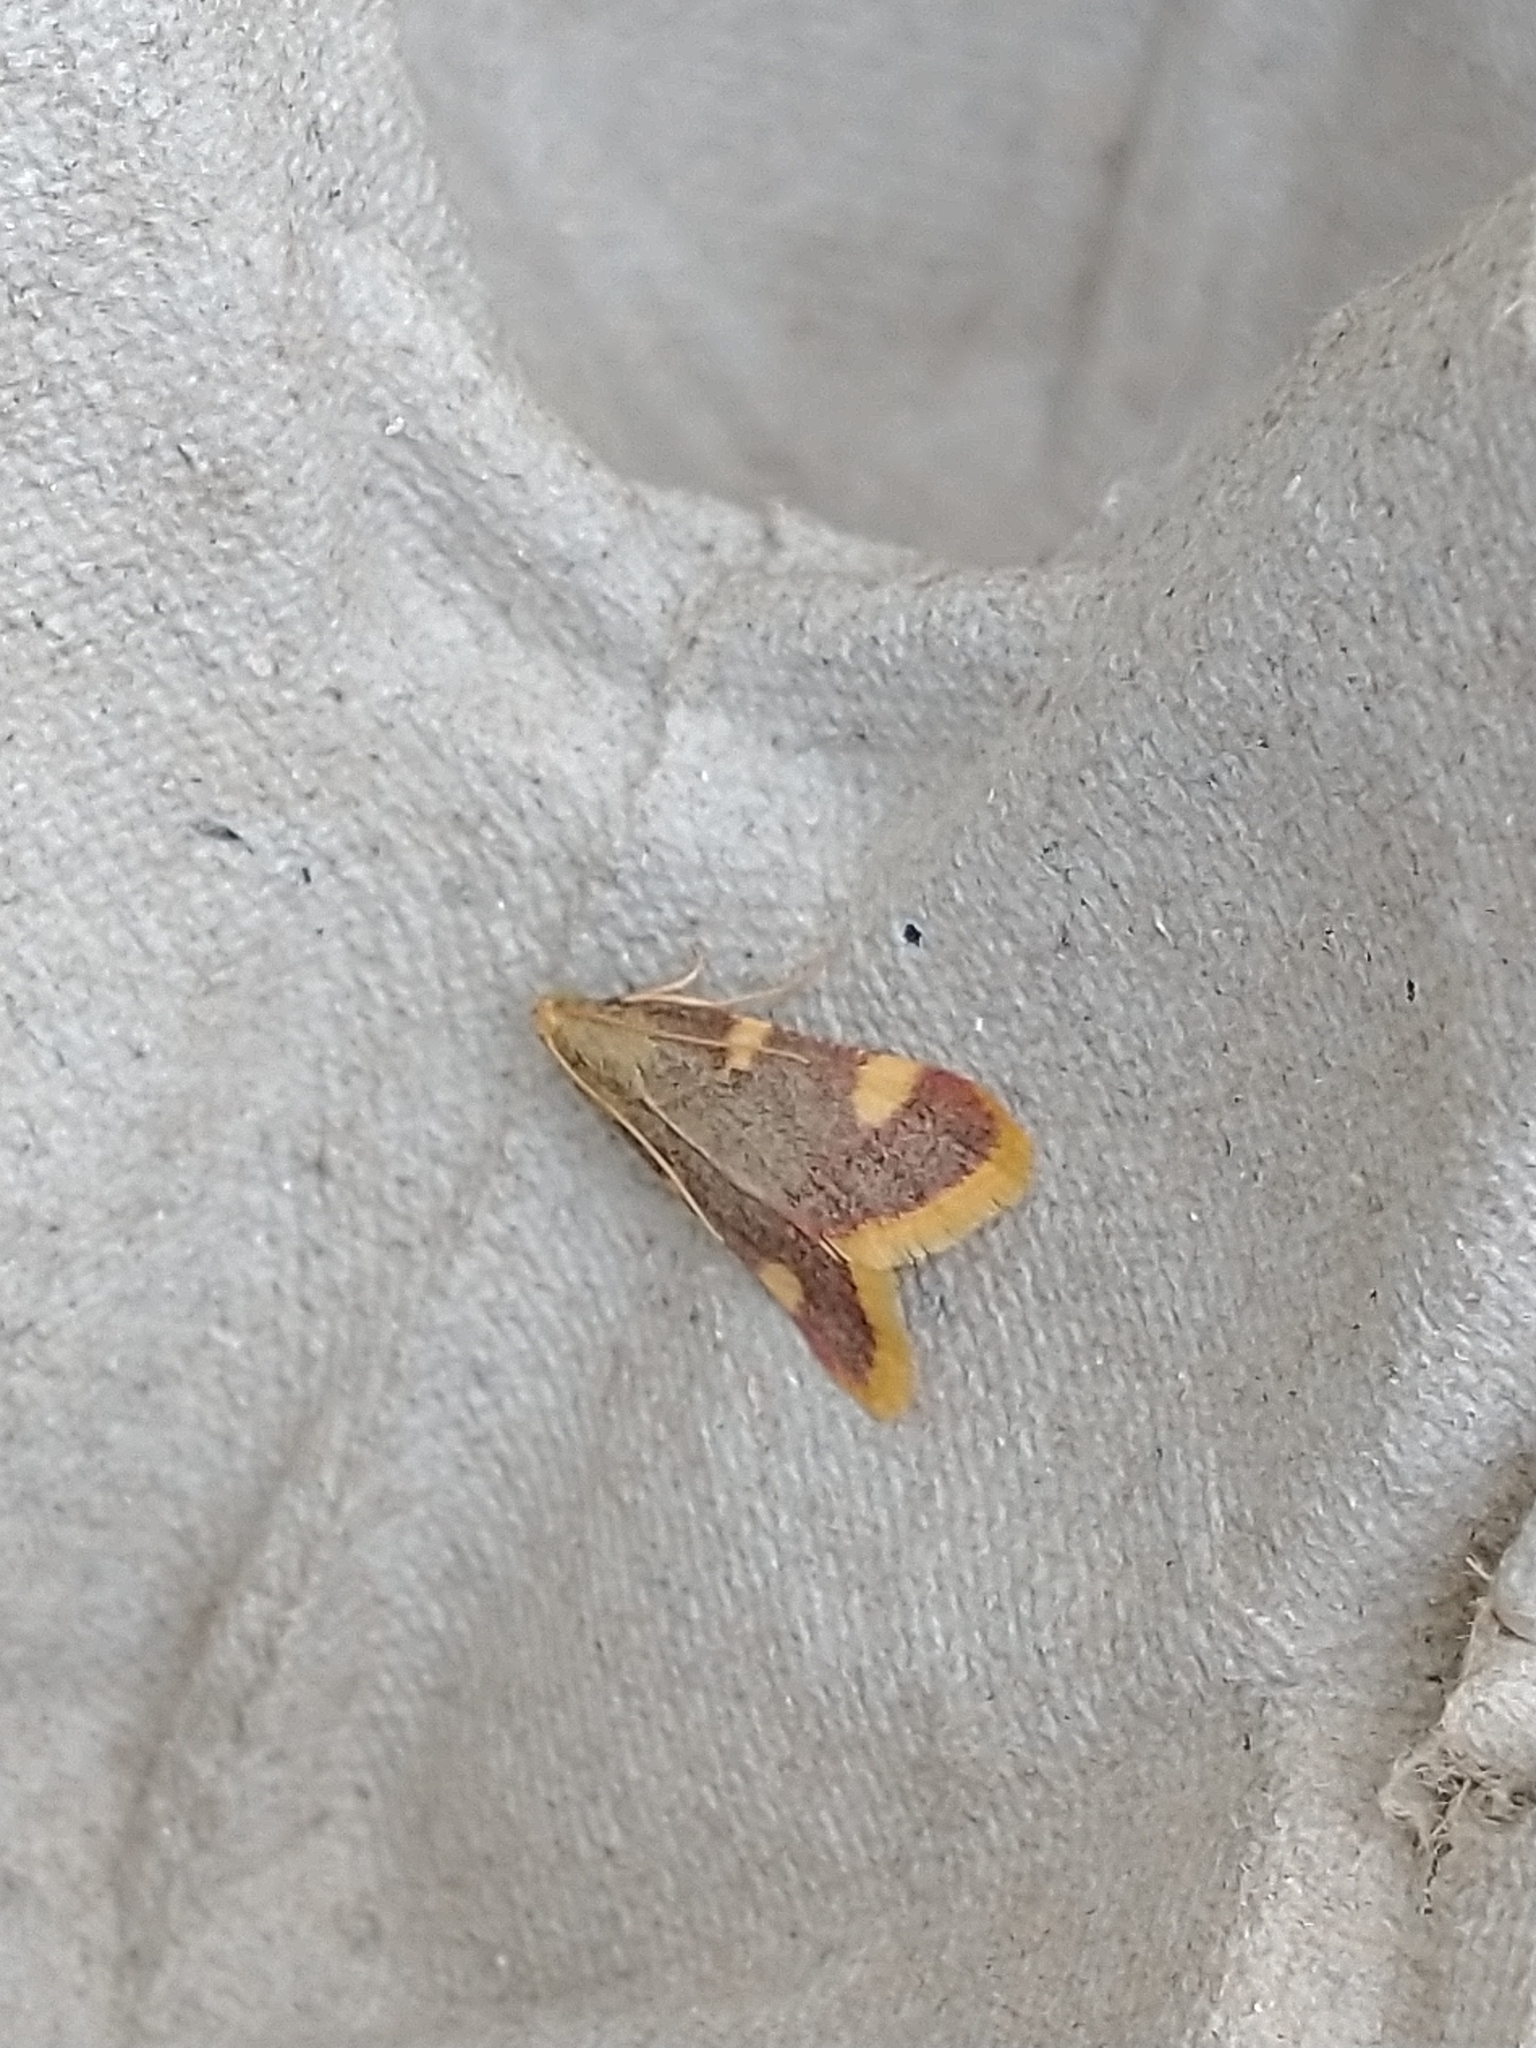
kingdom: Animalia
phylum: Arthropoda
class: Insecta
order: Lepidoptera
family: Pyralidae
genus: Hypsopygia
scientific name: Hypsopygia costalis
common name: Gold triangle
